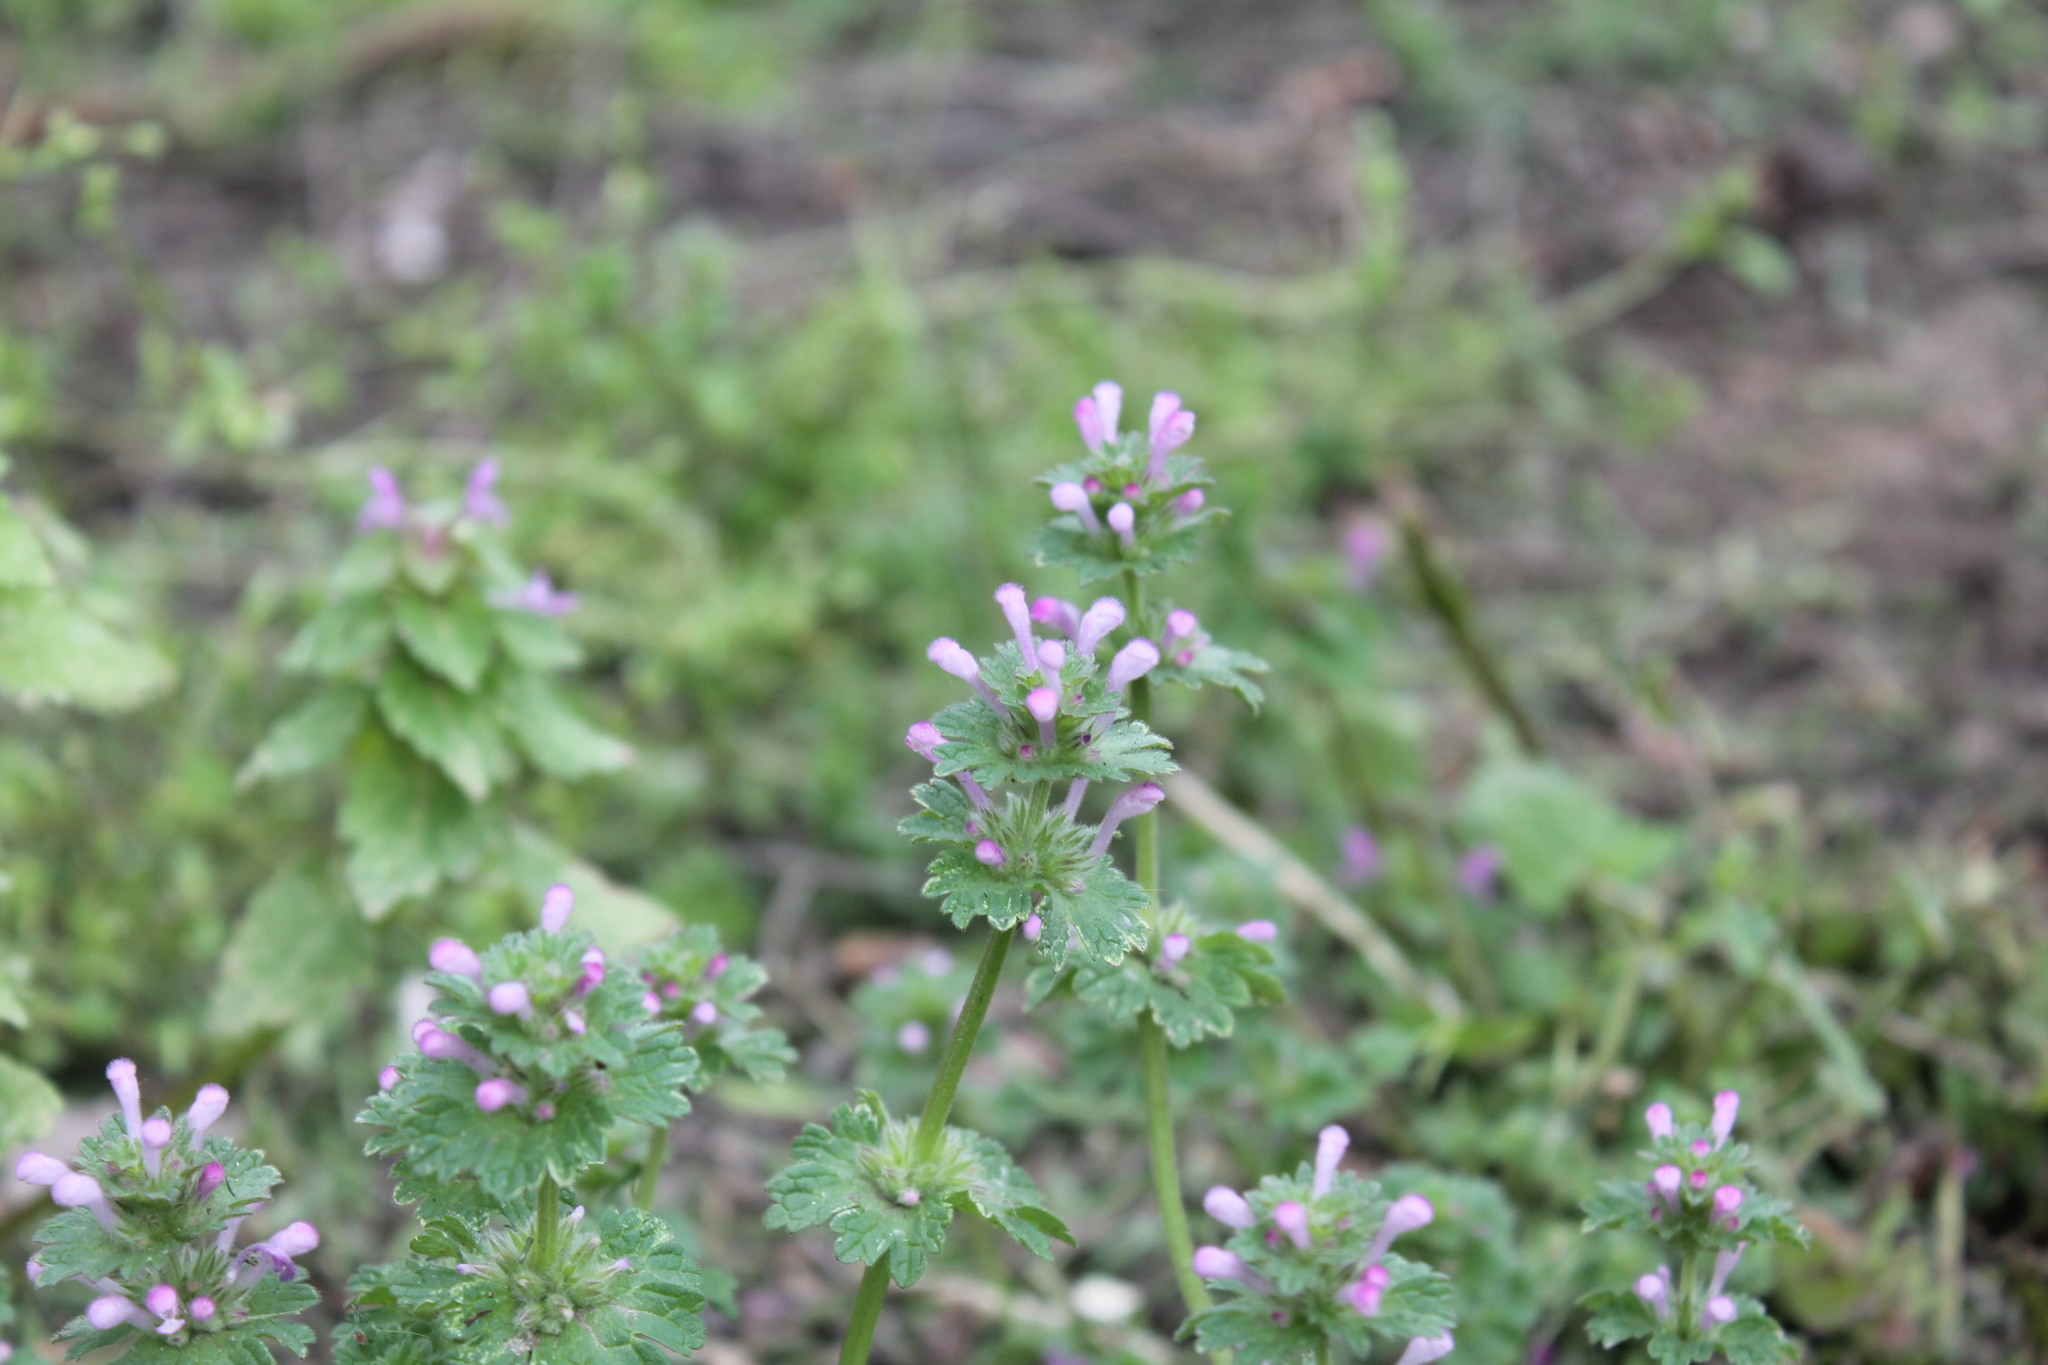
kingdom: Plantae
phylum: Tracheophyta
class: Magnoliopsida
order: Lamiales
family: Lamiaceae
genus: Lamium
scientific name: Lamium amplexicaule
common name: Henbit dead-nettle
